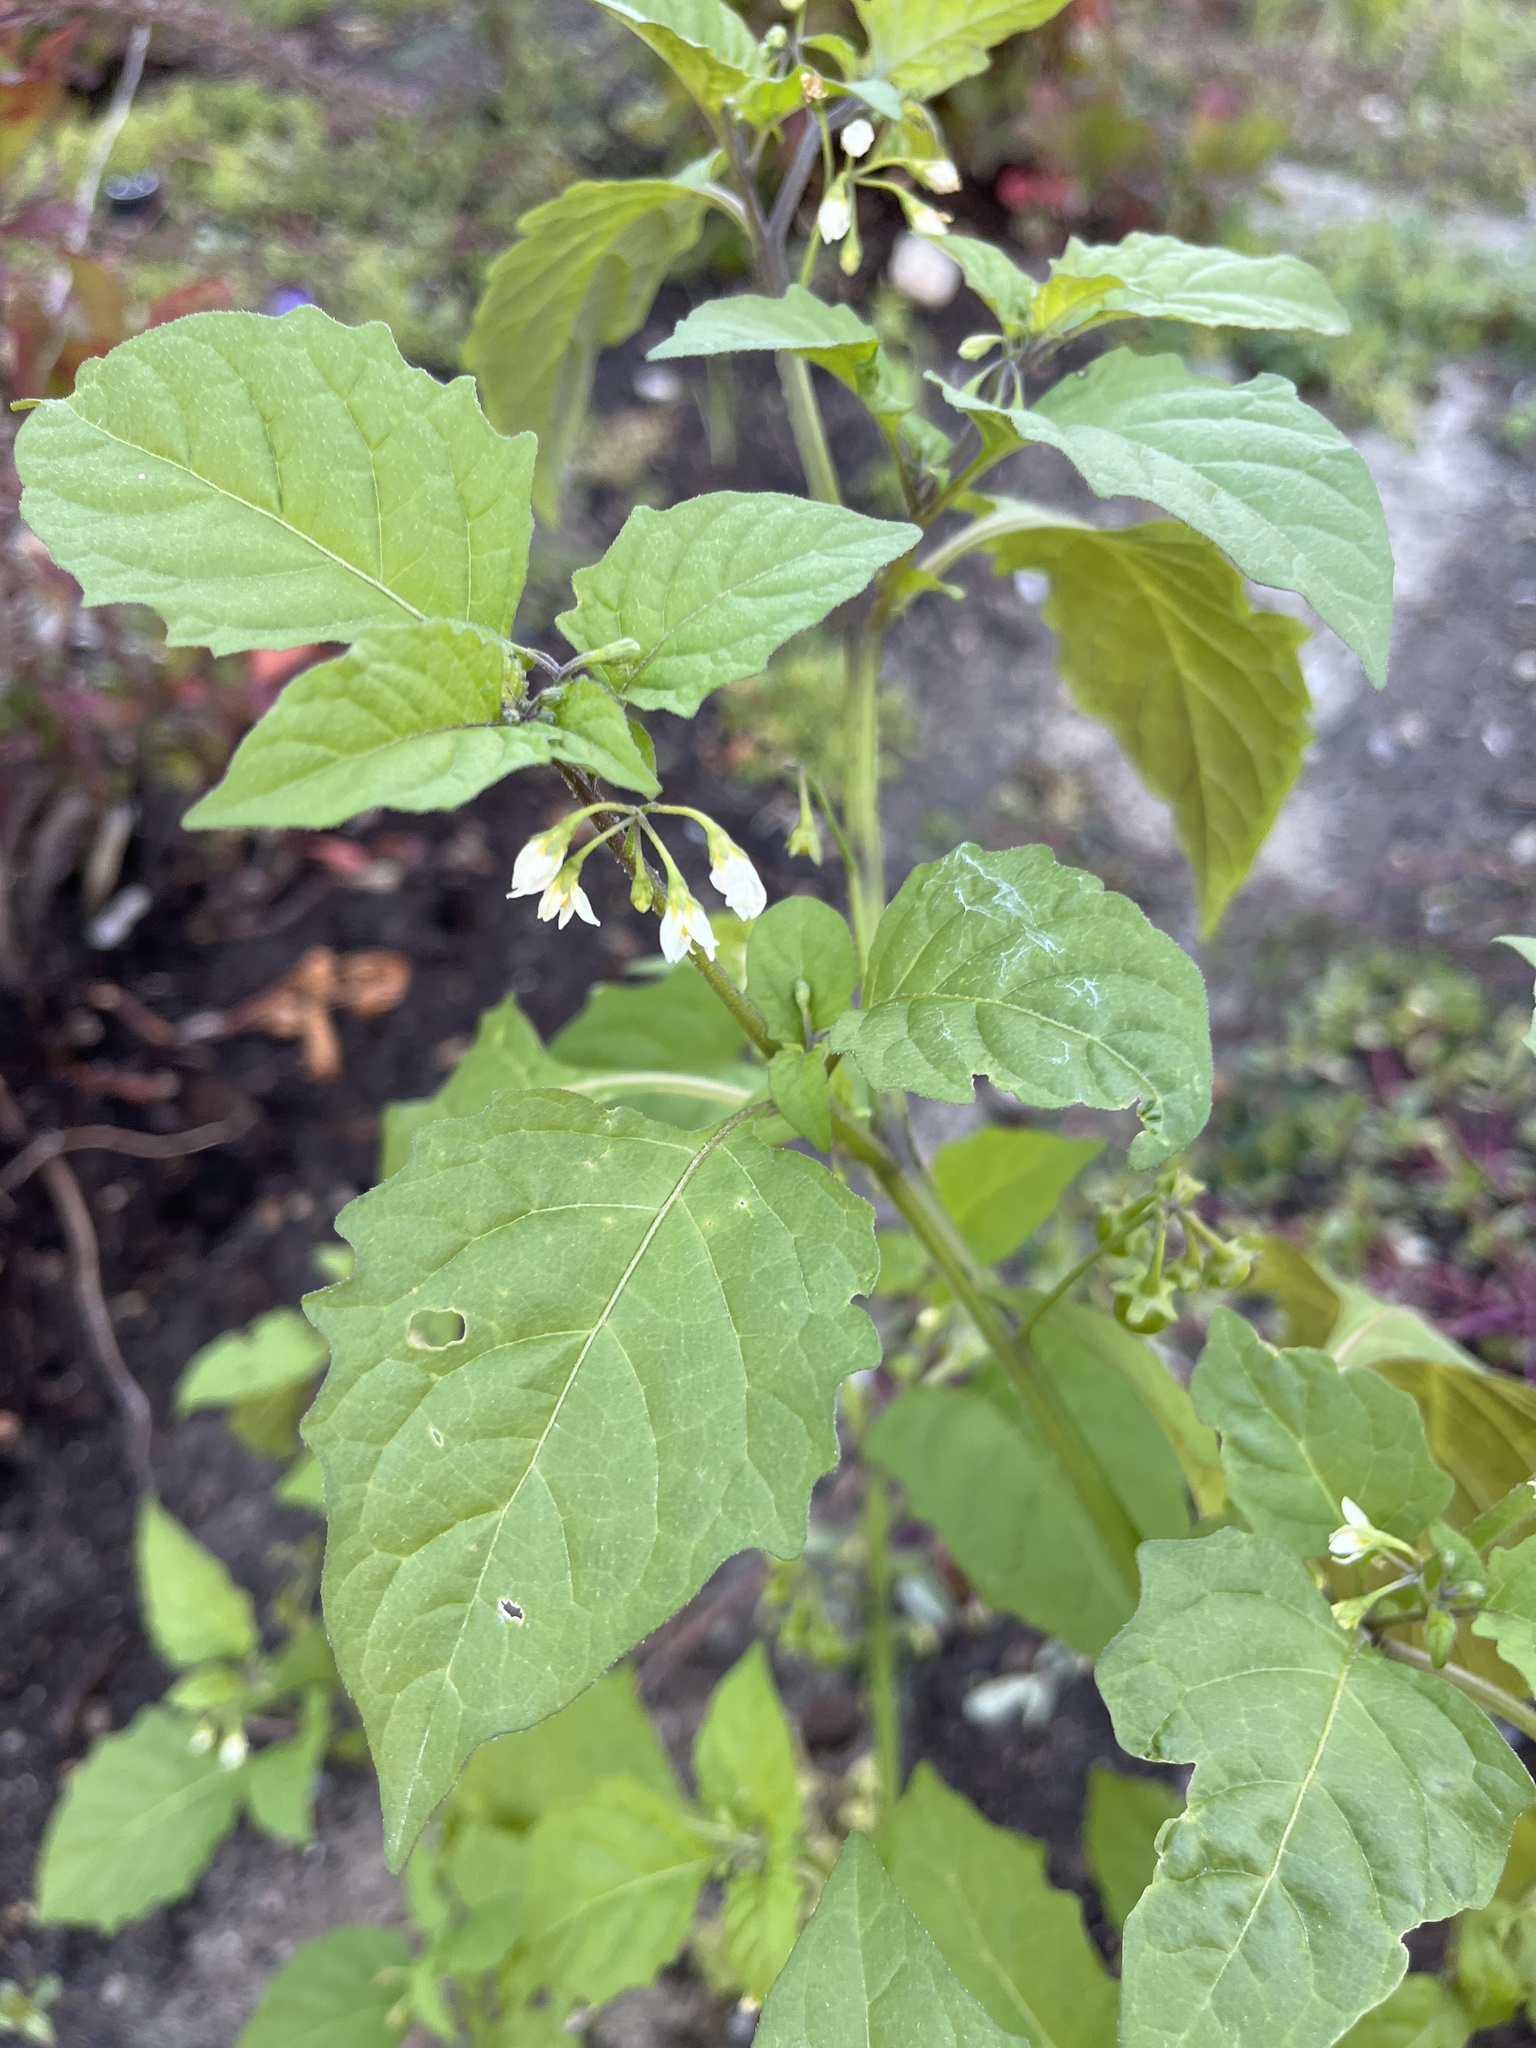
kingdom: Plantae
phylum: Tracheophyta
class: Magnoliopsida
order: Solanales
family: Solanaceae
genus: Solanum
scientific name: Solanum emulans
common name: Eastern black nightshade
